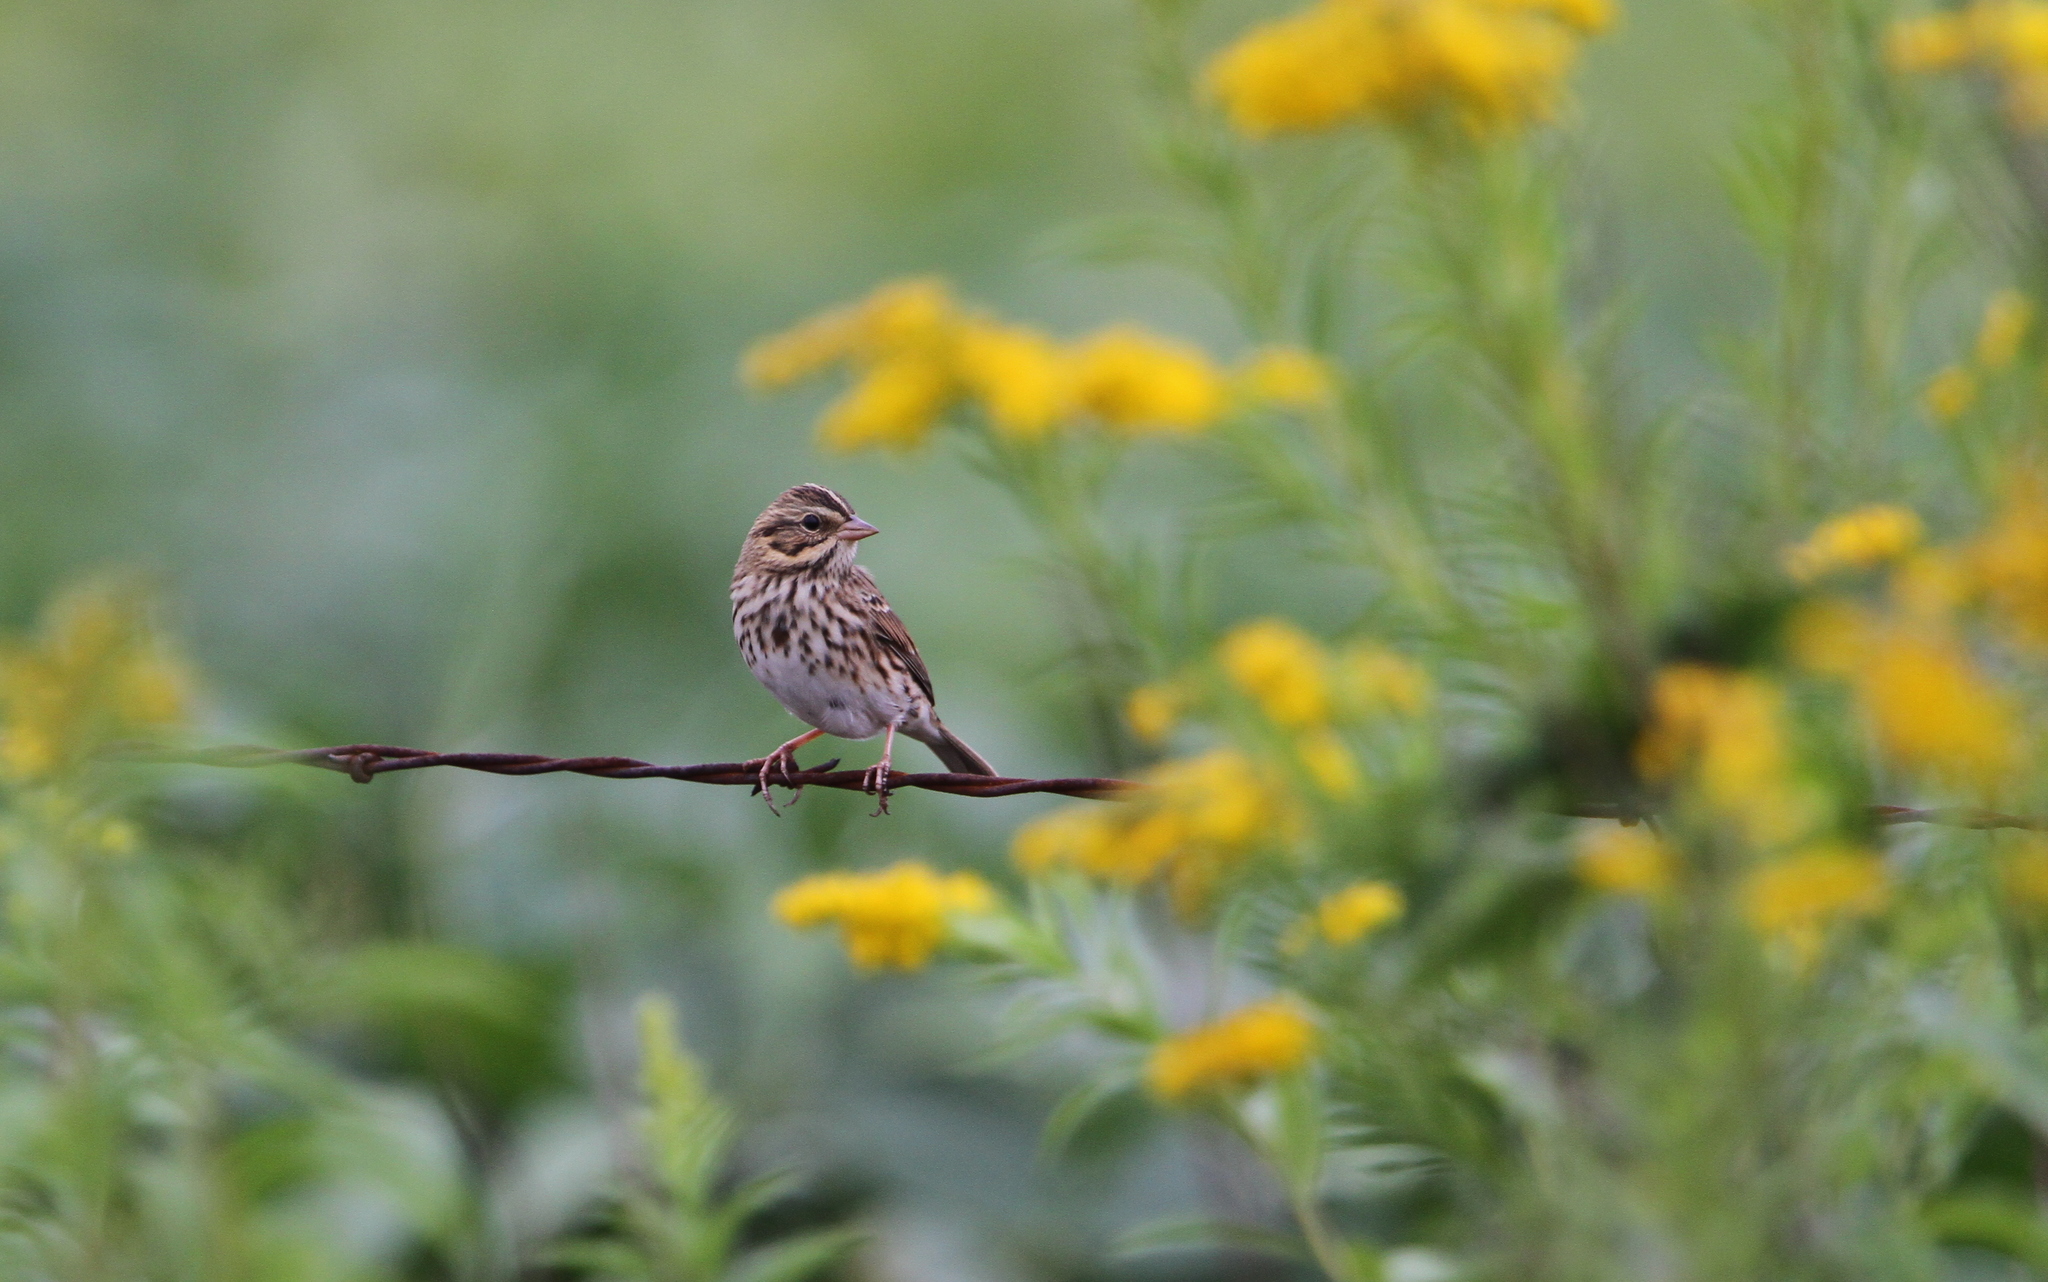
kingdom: Animalia
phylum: Chordata
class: Aves
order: Passeriformes
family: Passerellidae
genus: Passerculus
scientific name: Passerculus sandwichensis
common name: Savannah sparrow
